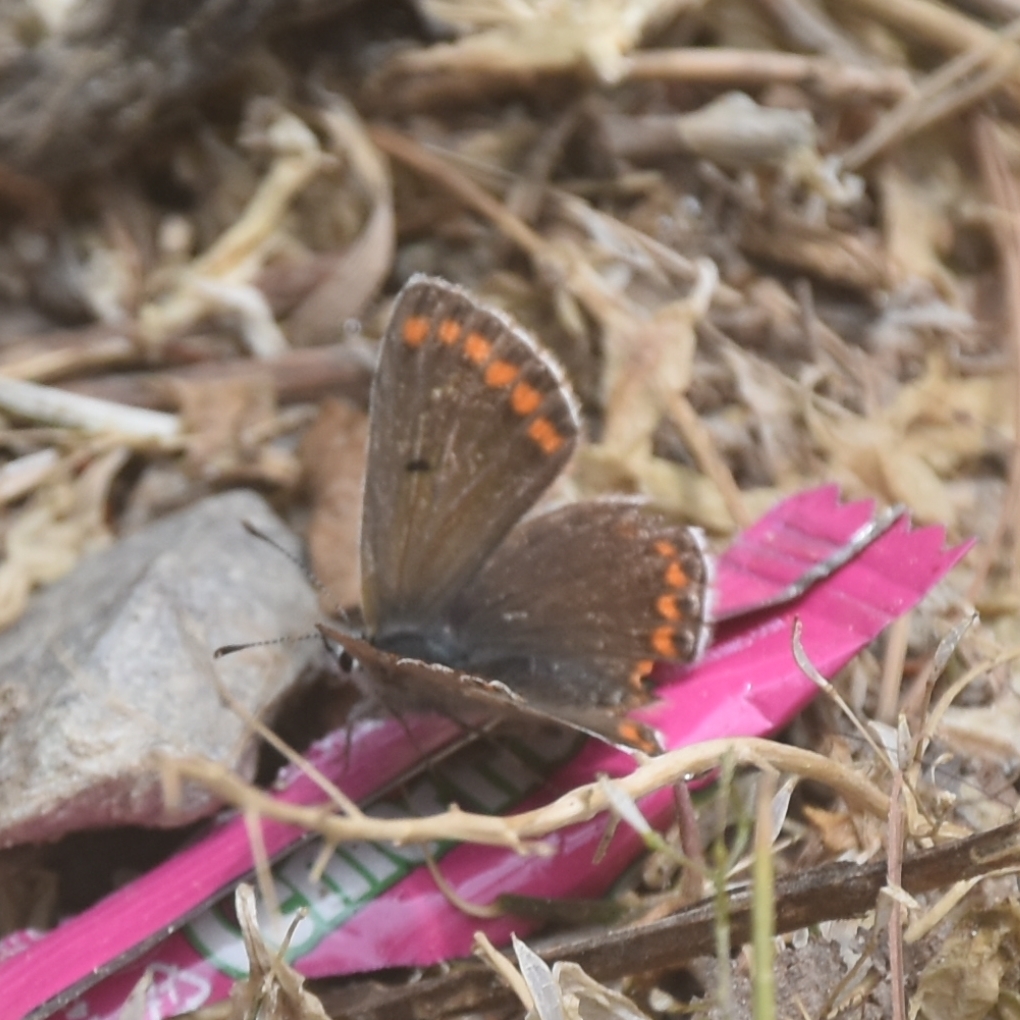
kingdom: Animalia
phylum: Arthropoda
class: Insecta
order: Lepidoptera
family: Lycaenidae
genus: Aricia
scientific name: Aricia agestis
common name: Brown argus
